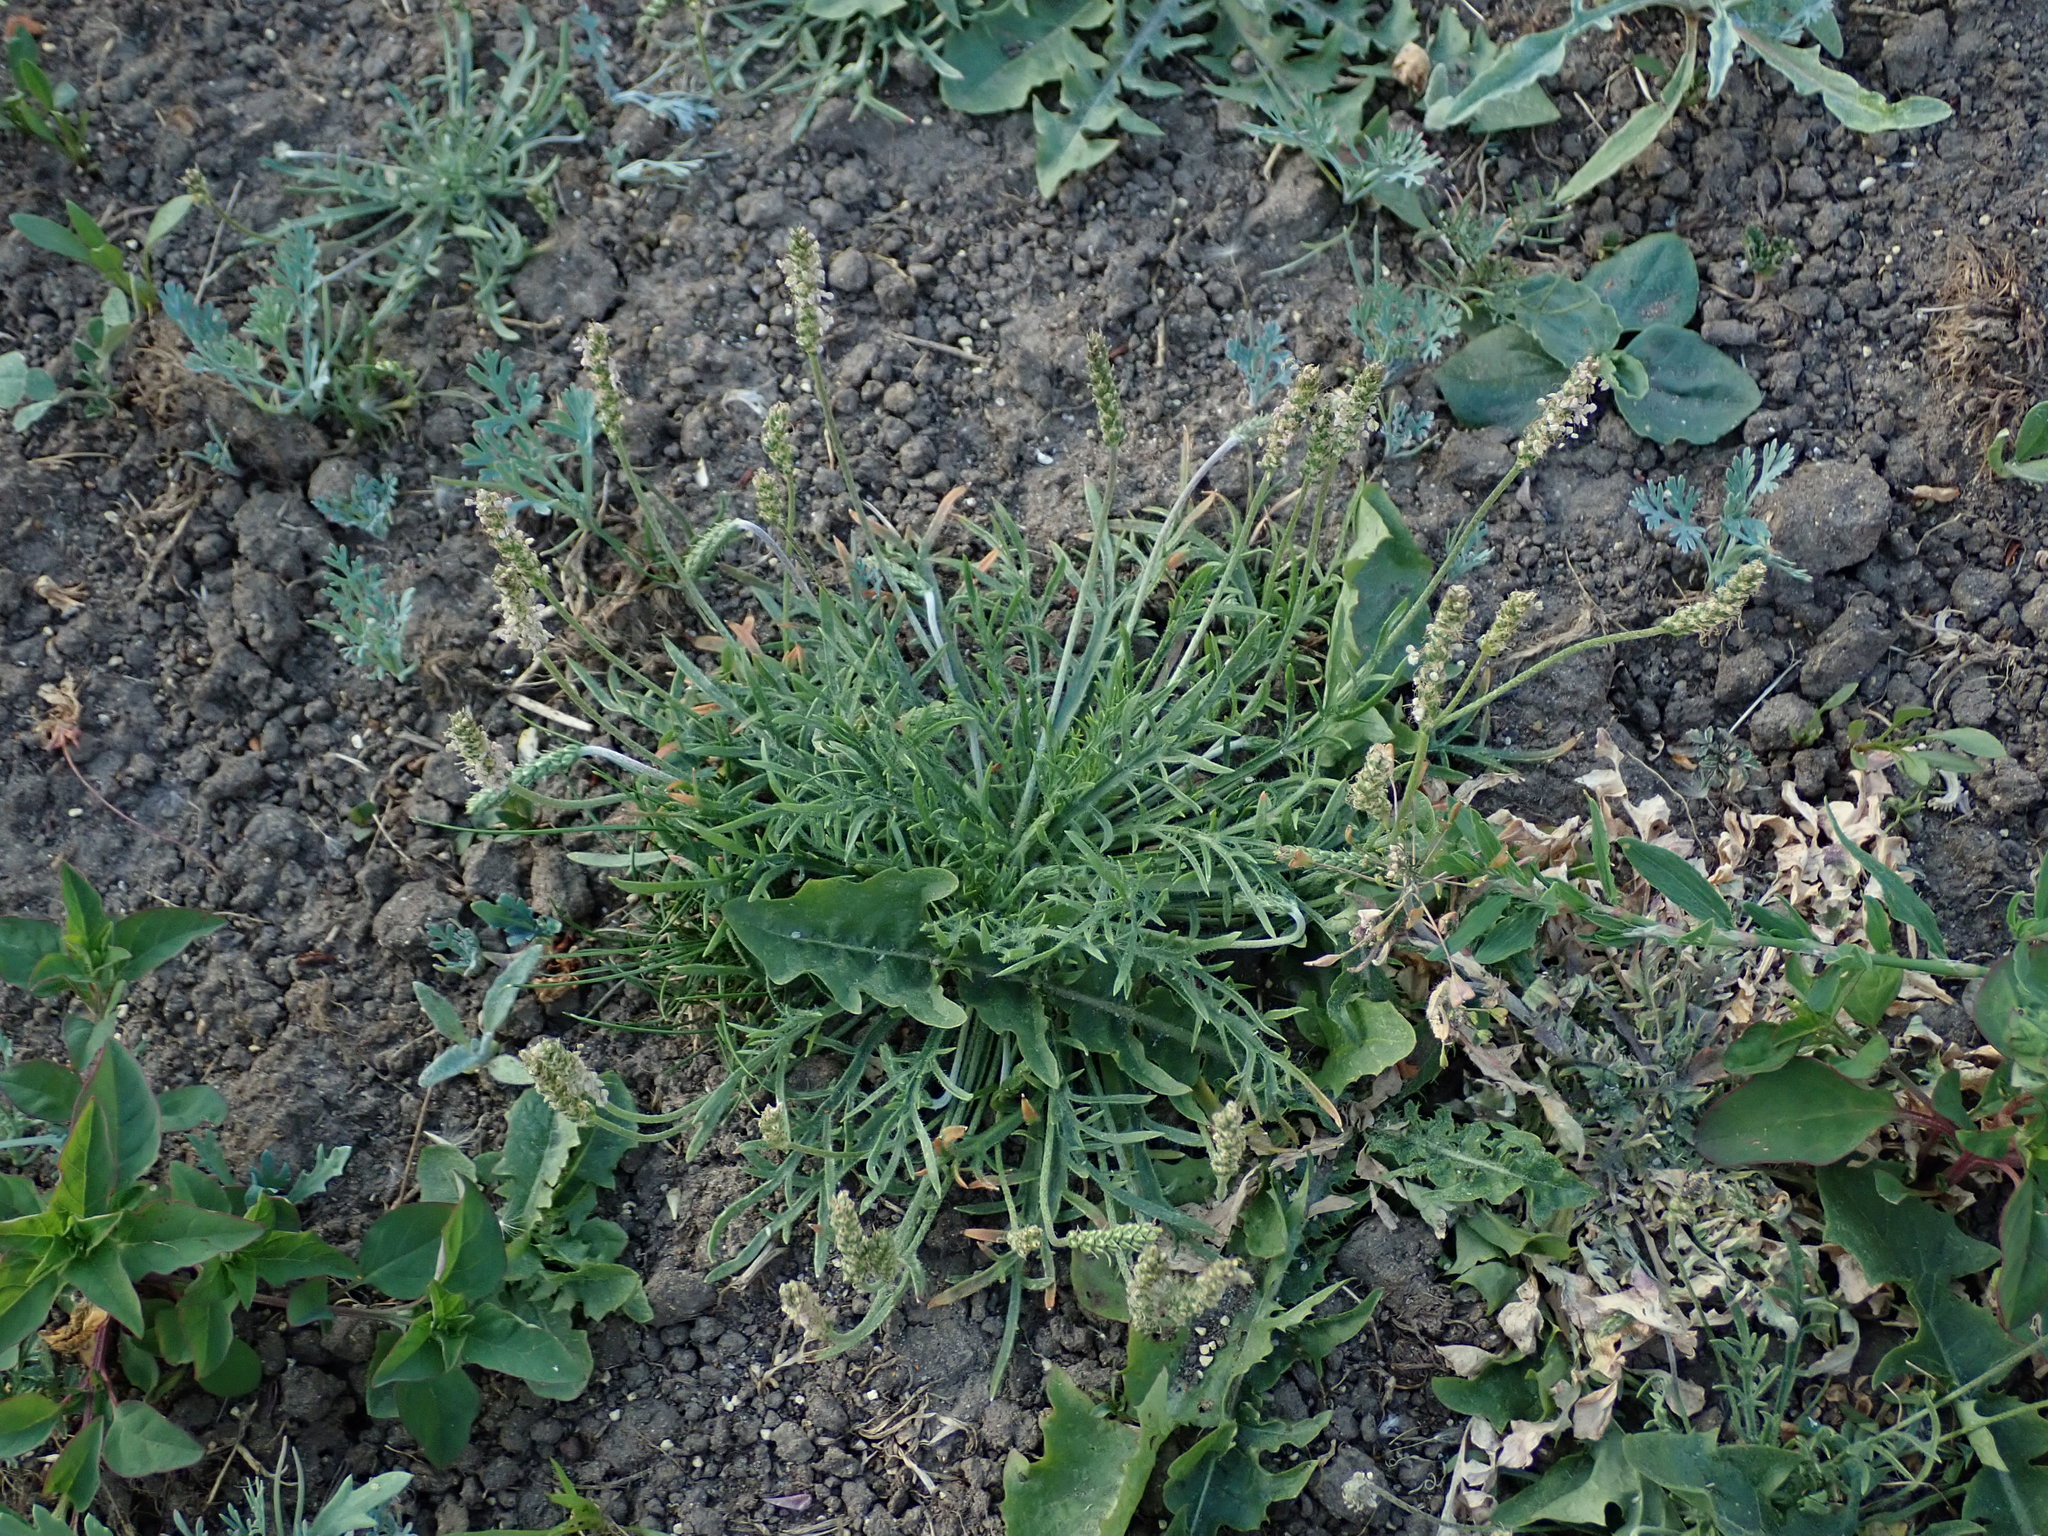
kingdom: Plantae
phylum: Tracheophyta
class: Magnoliopsida
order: Lamiales
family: Plantaginaceae
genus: Plantago
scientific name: Plantago coronopus
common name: Buck's-horn plantain
